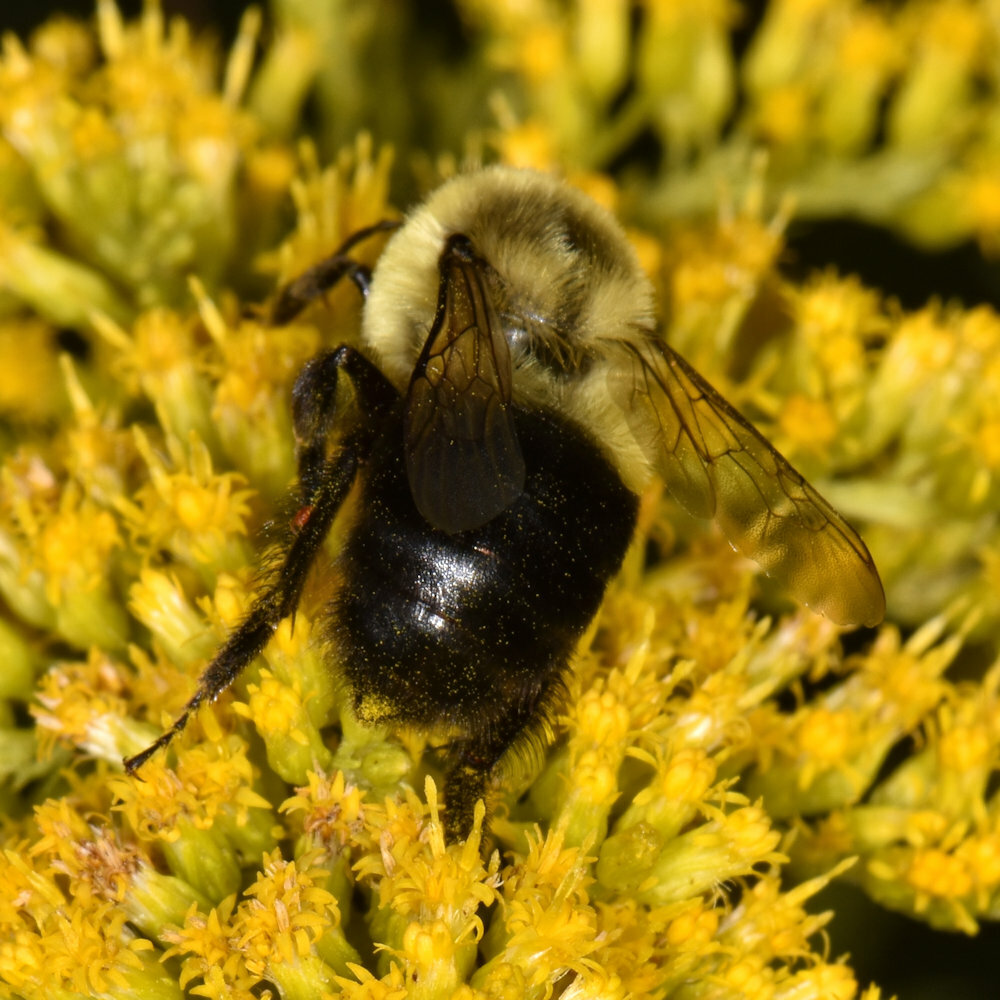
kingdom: Animalia
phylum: Arthropoda
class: Insecta
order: Hymenoptera
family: Apidae
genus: Bombus
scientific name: Bombus impatiens
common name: Common eastern bumble bee
